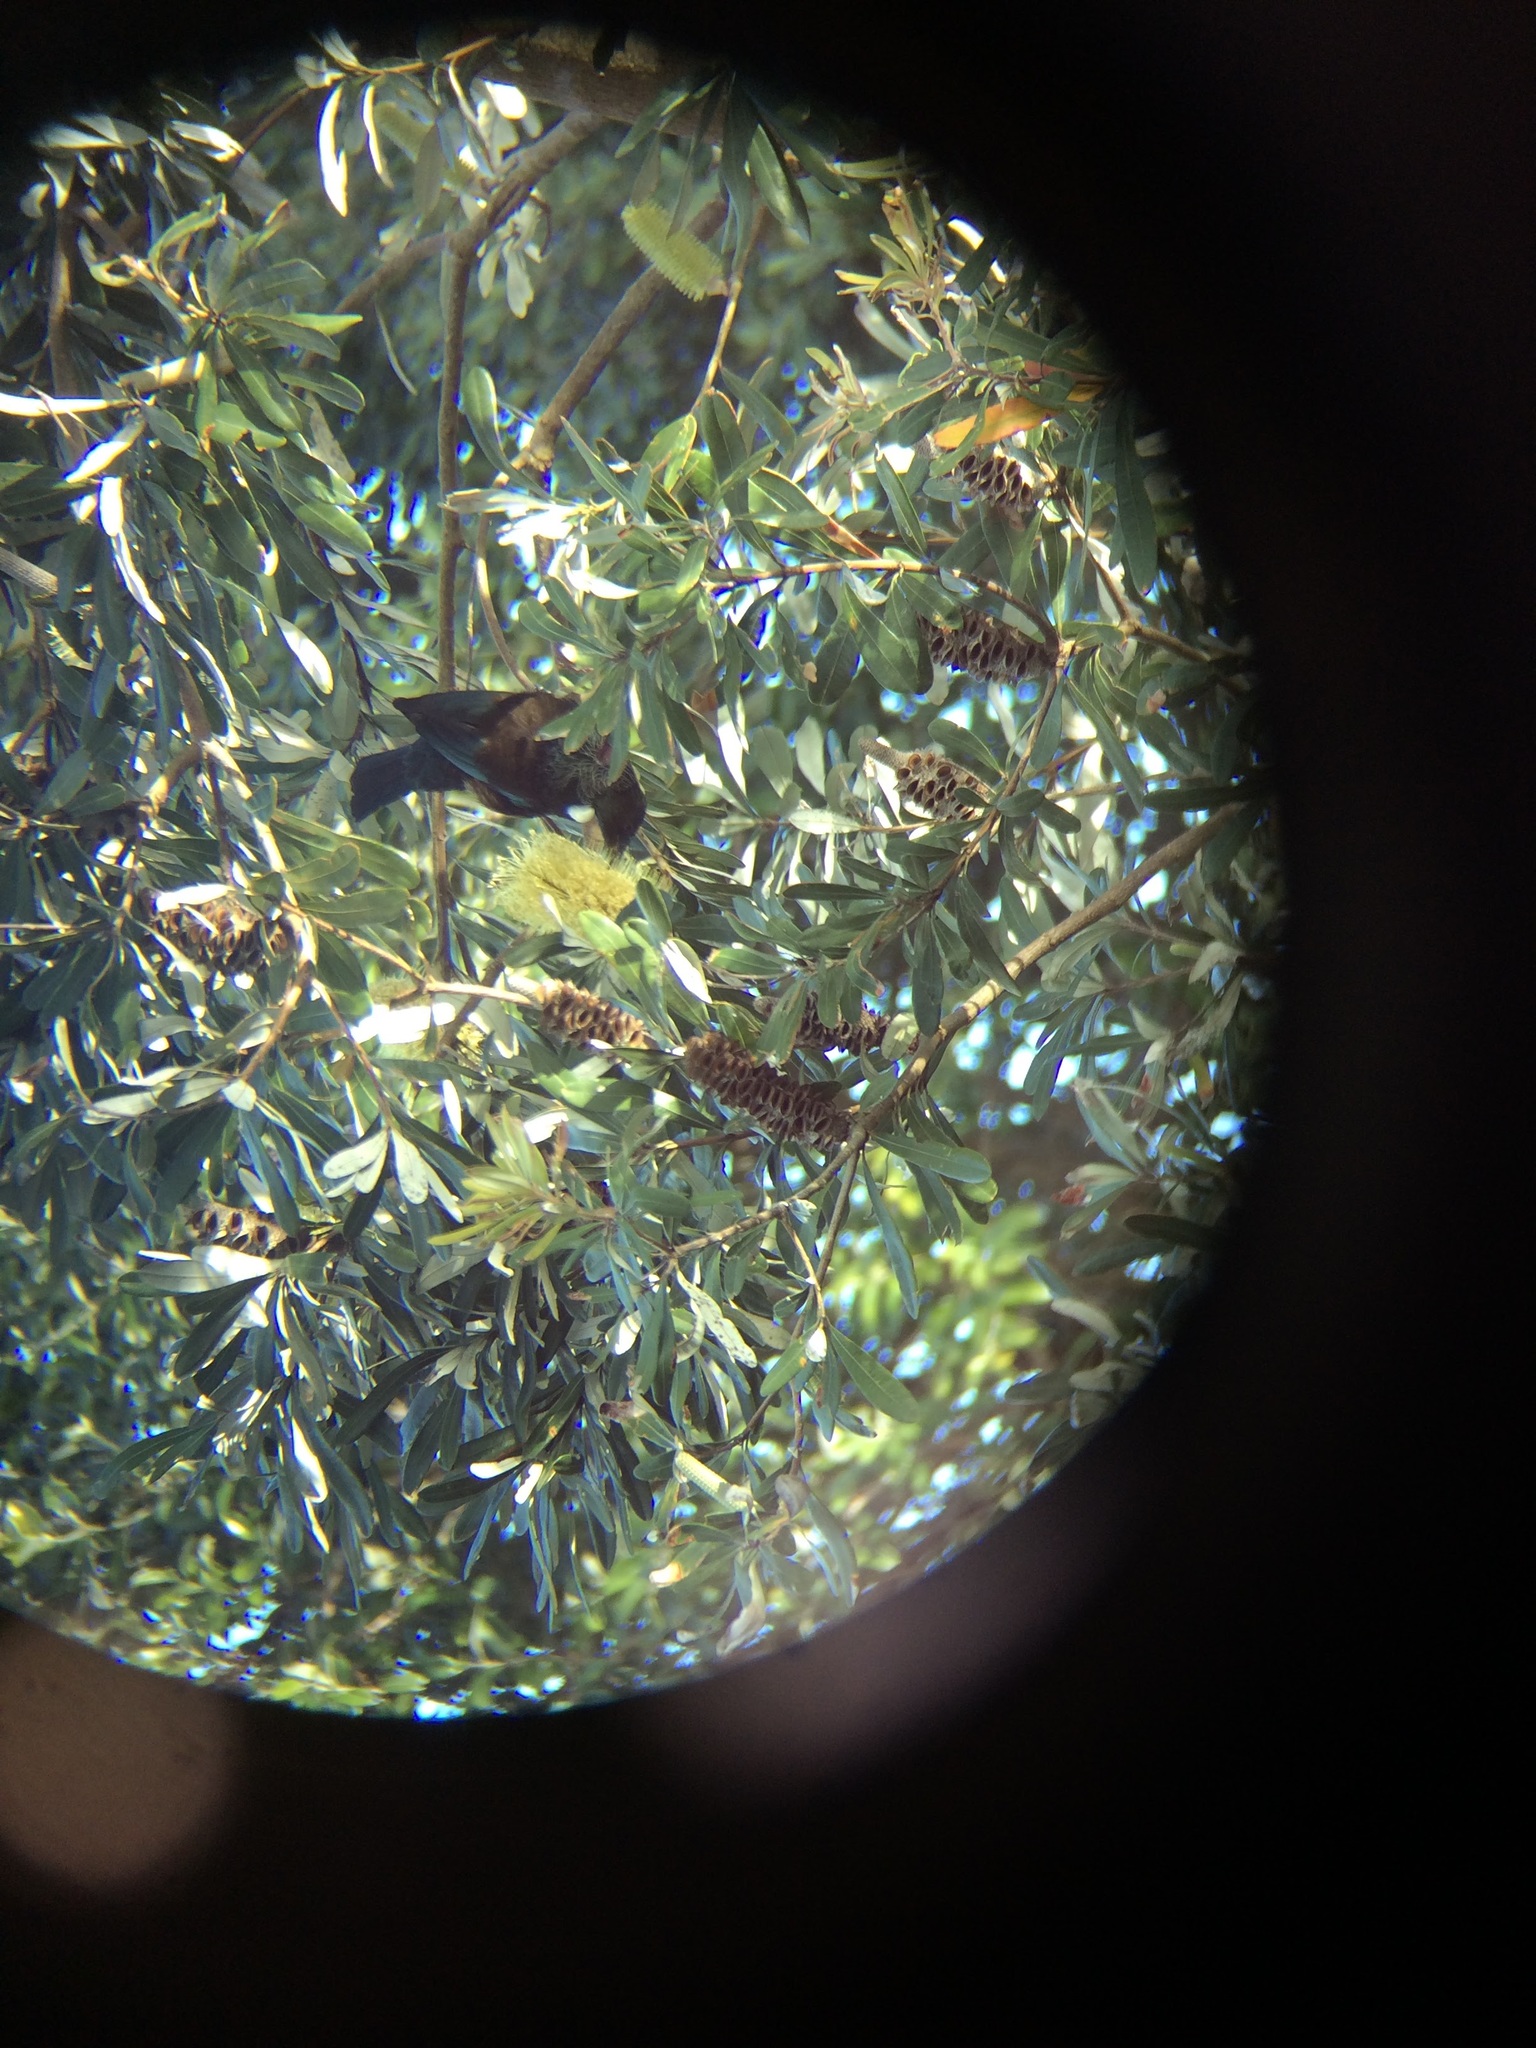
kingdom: Animalia
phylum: Chordata
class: Aves
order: Passeriformes
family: Meliphagidae
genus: Prosthemadera
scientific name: Prosthemadera novaeseelandiae
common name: Tui
